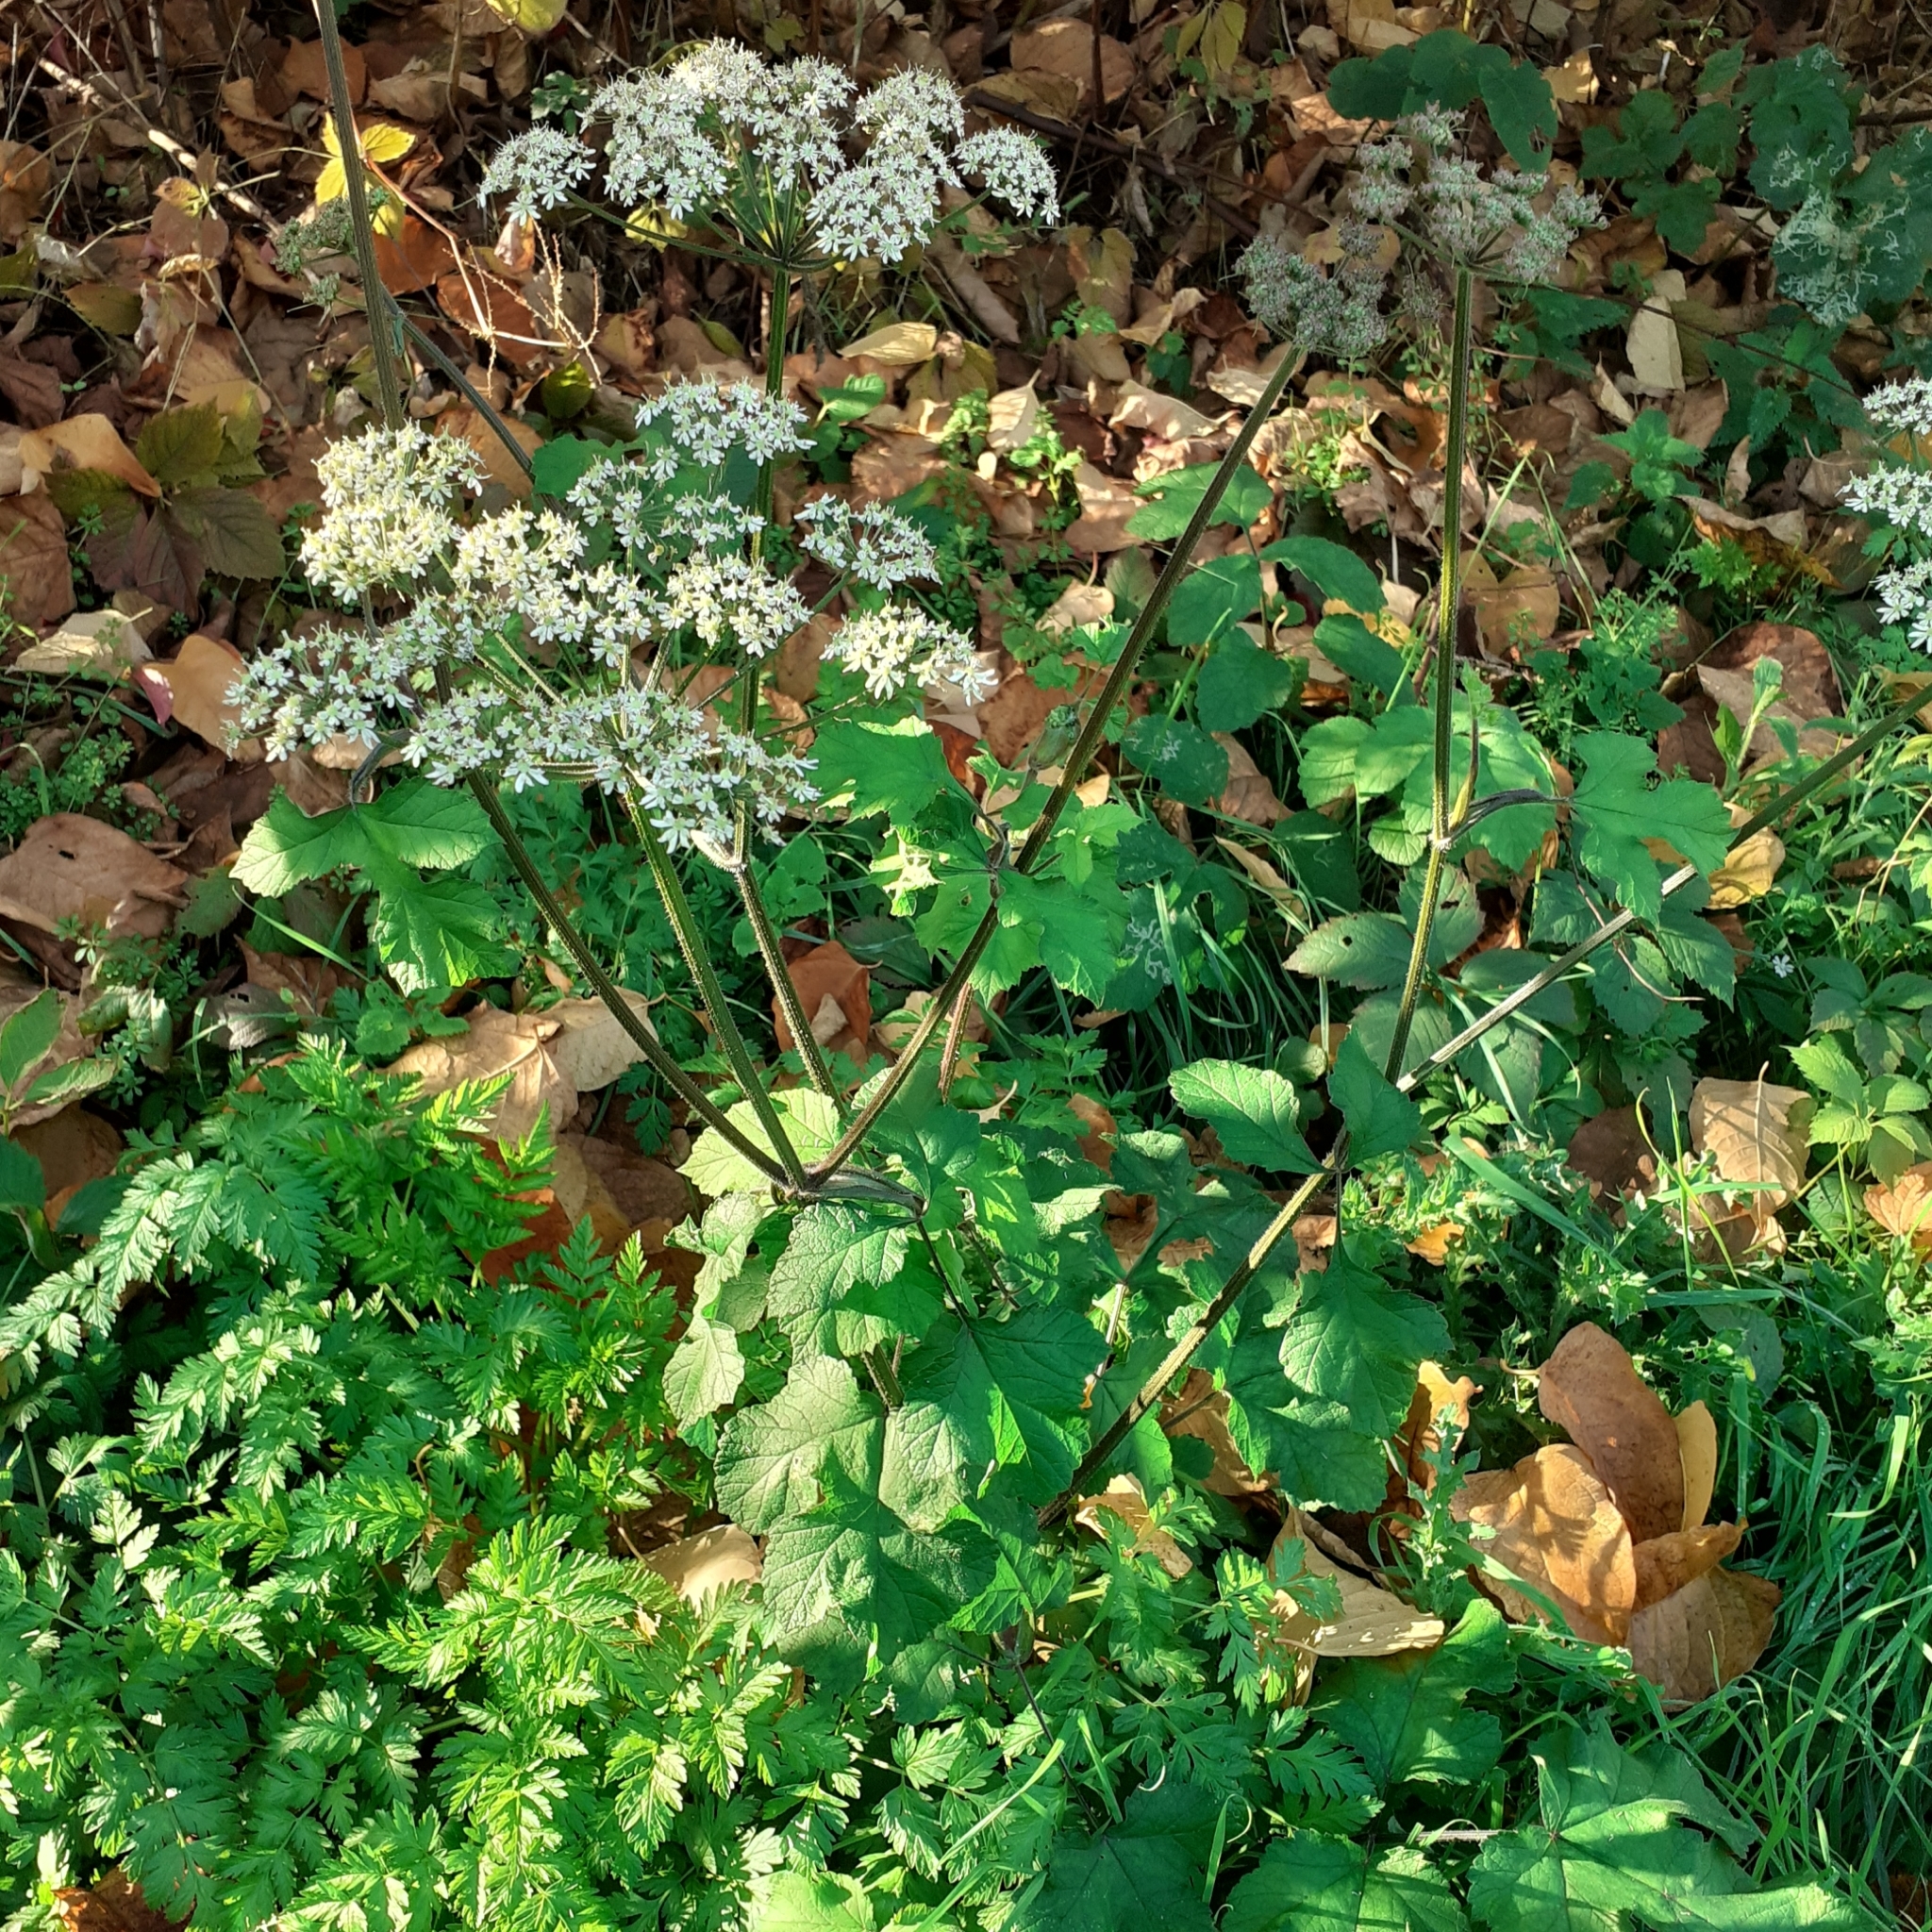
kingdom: Plantae
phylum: Tracheophyta
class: Magnoliopsida
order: Apiales
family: Apiaceae
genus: Heracleum
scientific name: Heracleum sphondylium
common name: Hogweed
